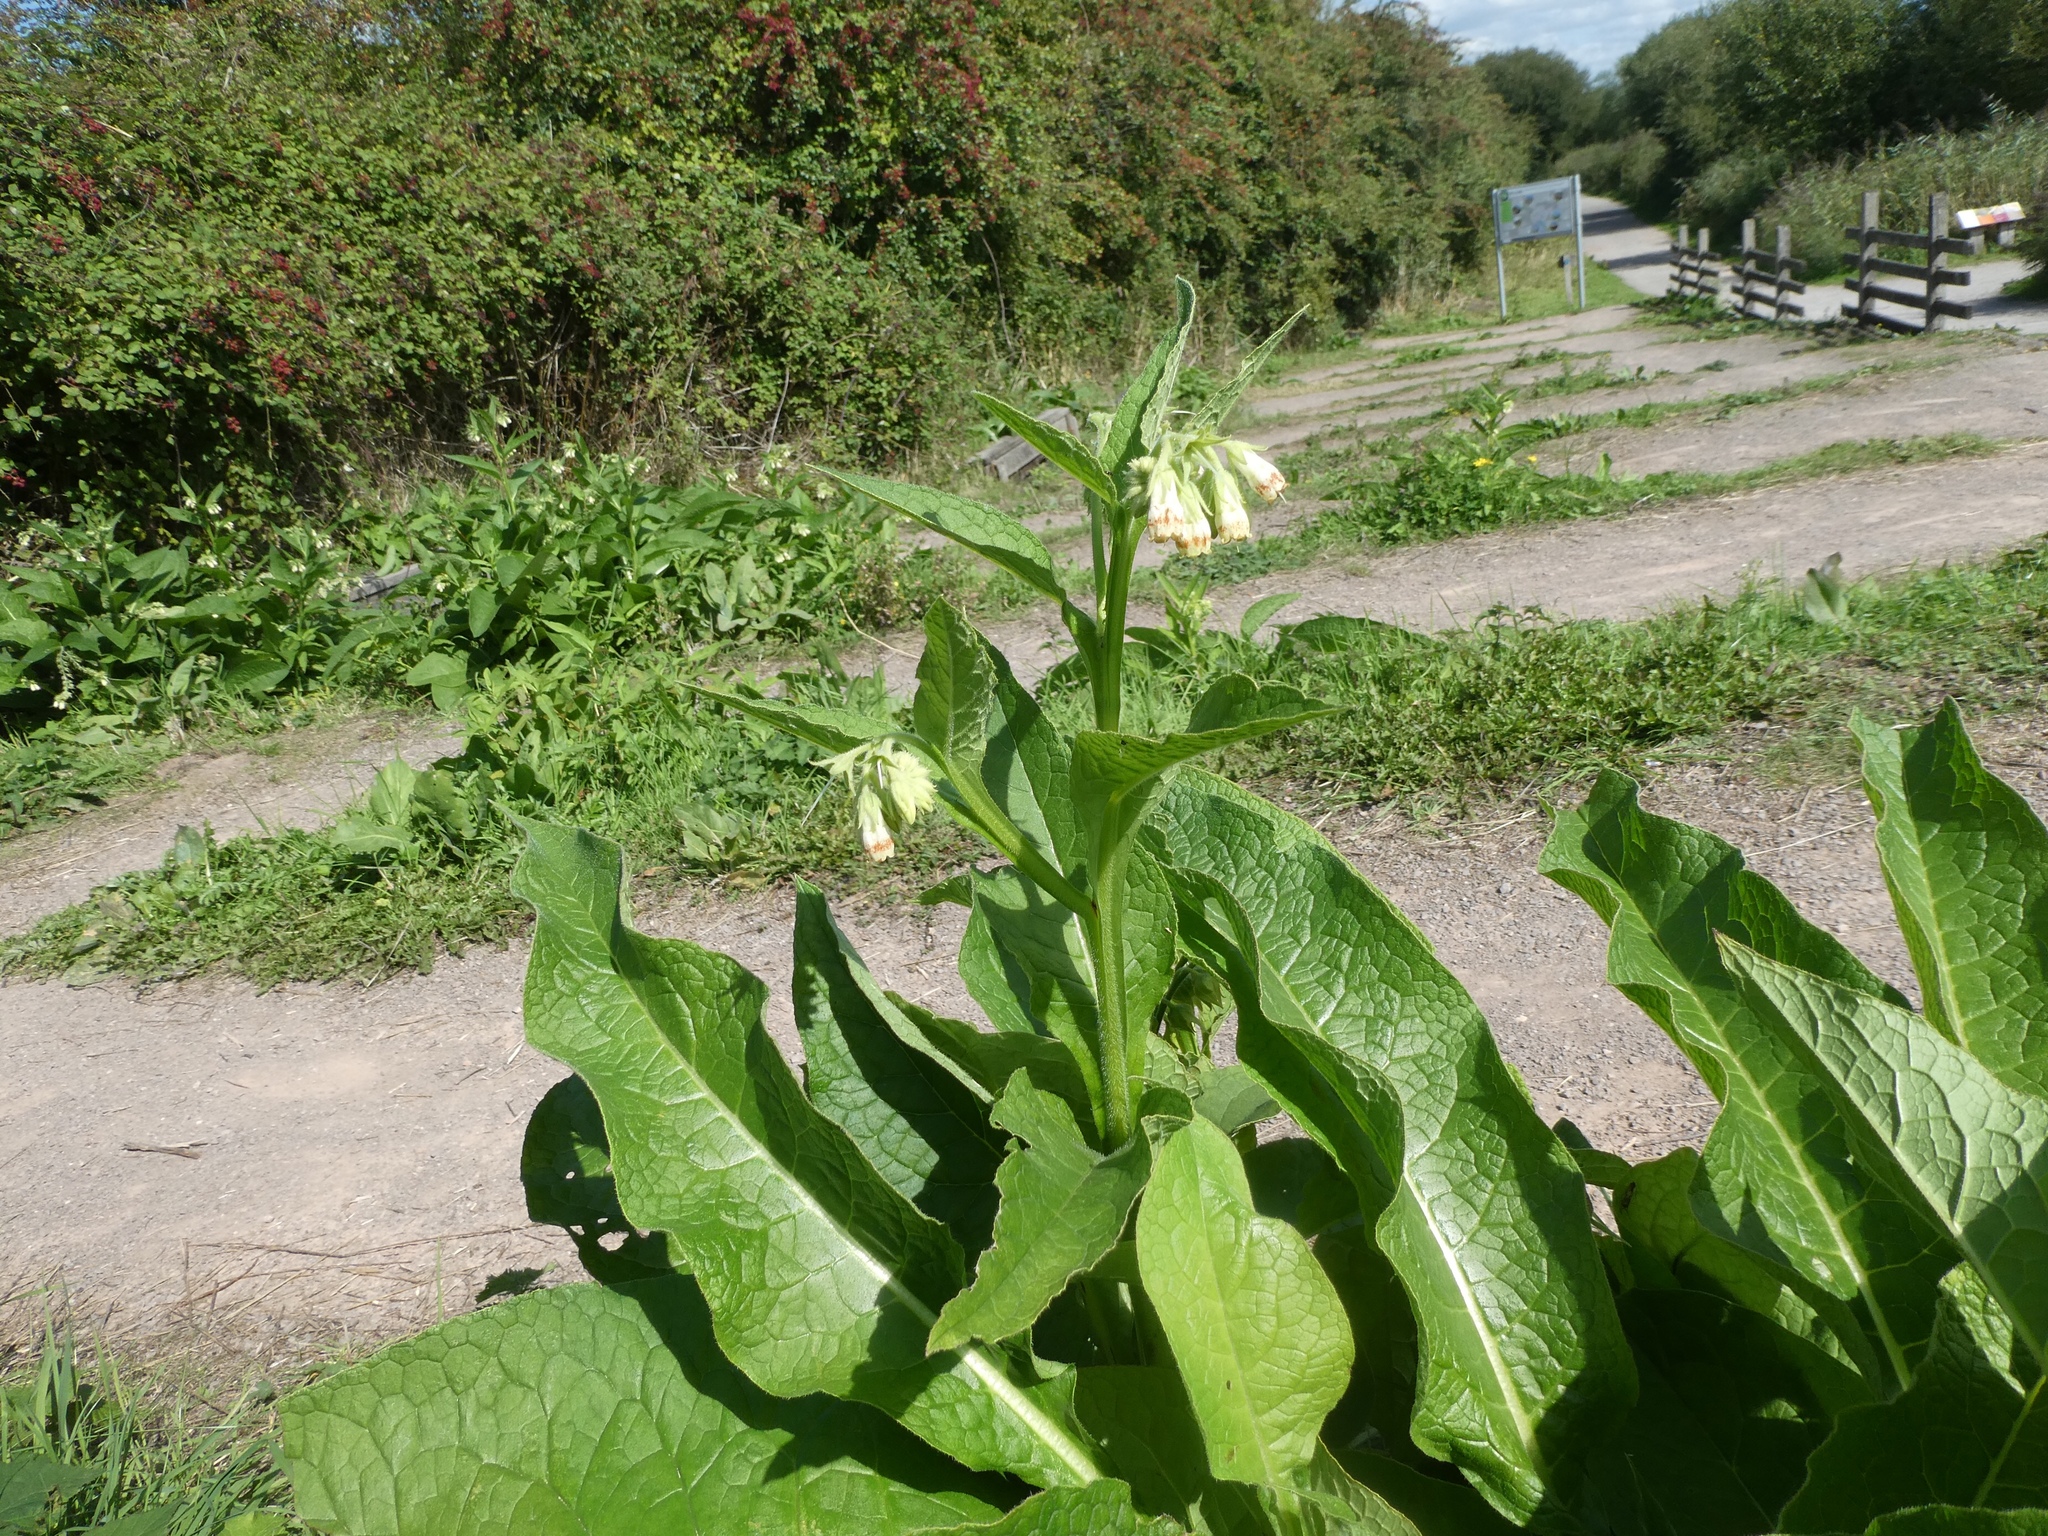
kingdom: Plantae
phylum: Tracheophyta
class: Magnoliopsida
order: Boraginales
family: Boraginaceae
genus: Symphytum
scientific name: Symphytum officinale
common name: Common comfrey
